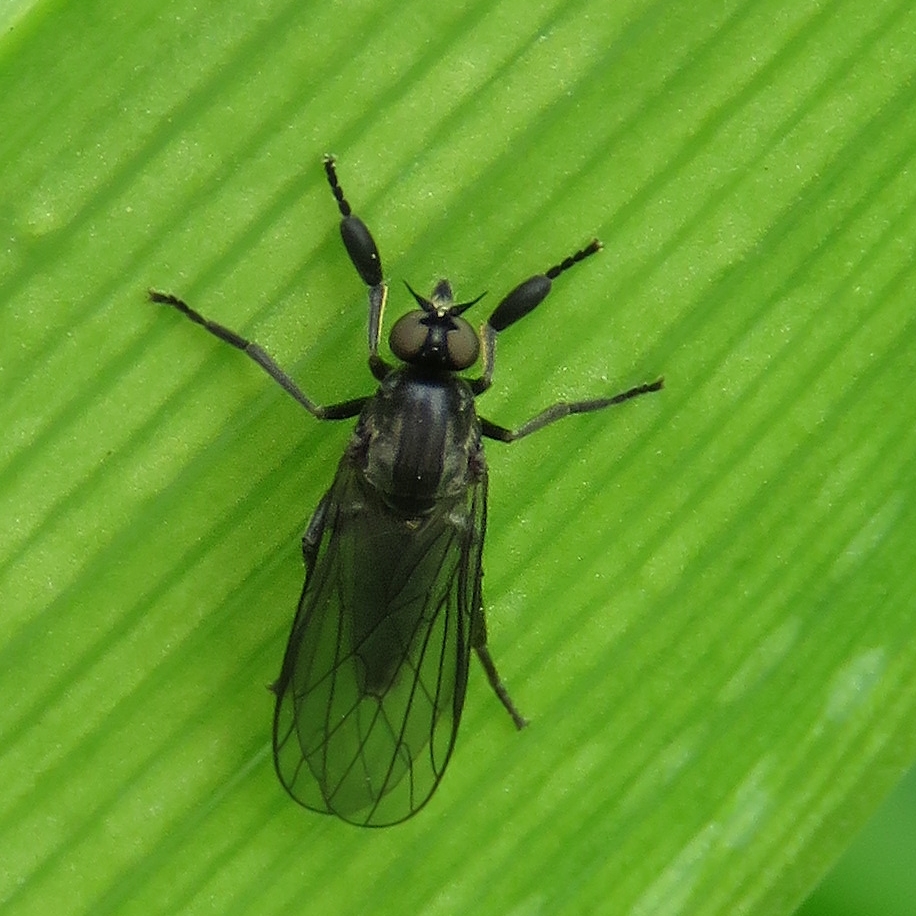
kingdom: Animalia
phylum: Arthropoda
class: Insecta
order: Diptera
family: Empididae
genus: Hilara
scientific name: Hilara maura
